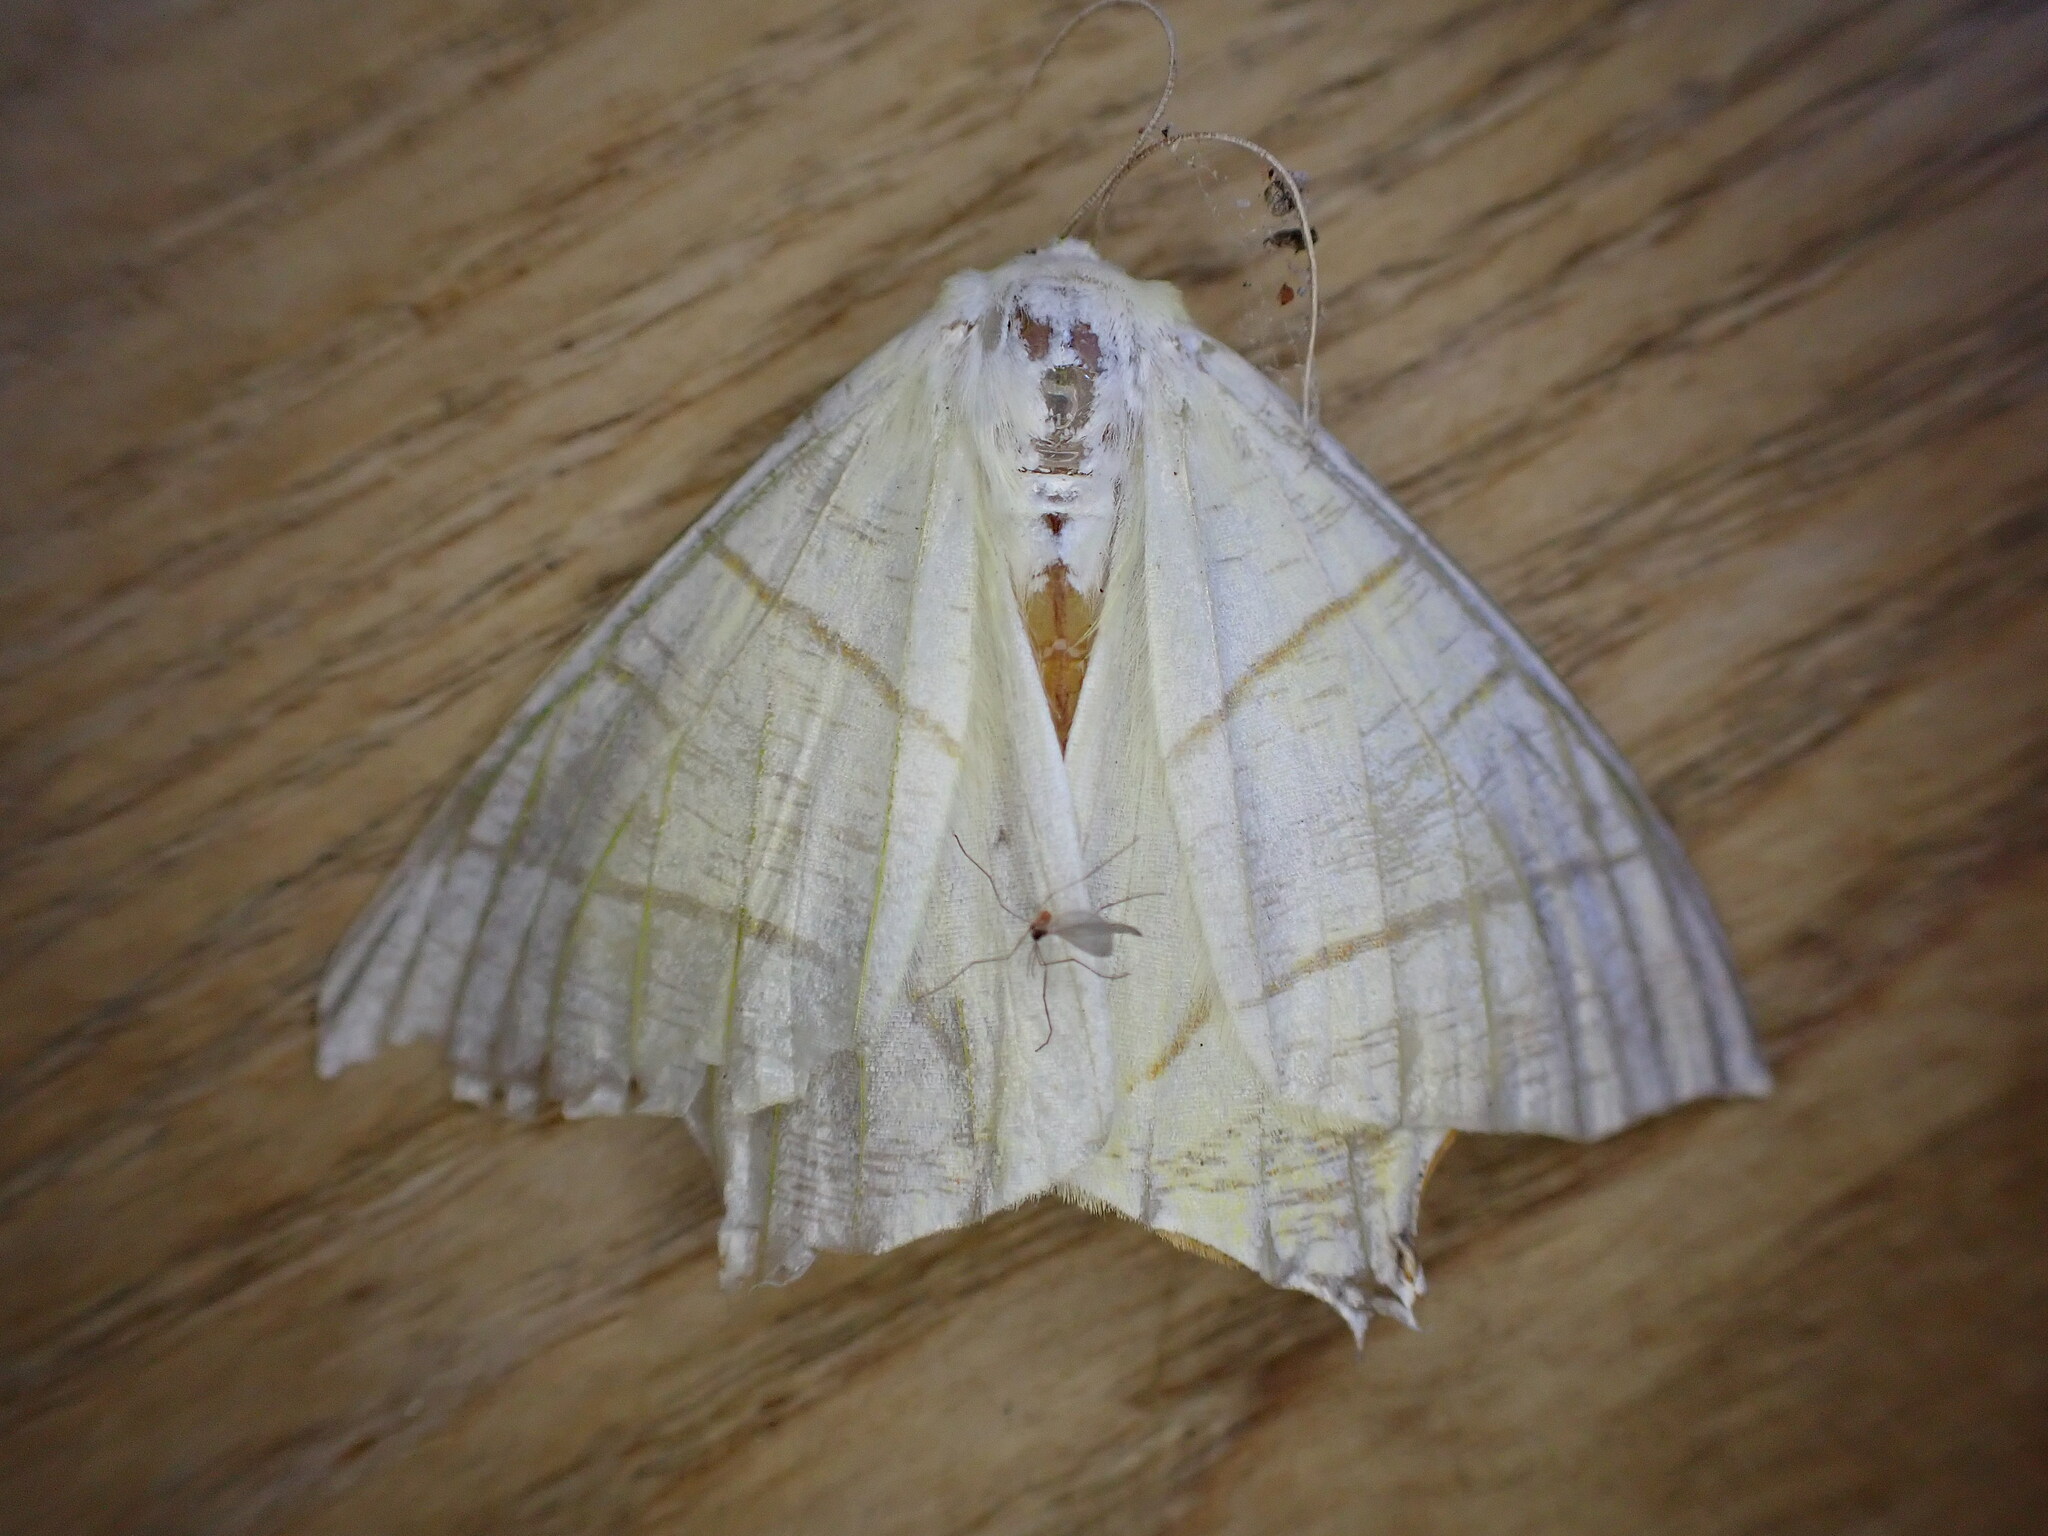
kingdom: Animalia
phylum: Arthropoda
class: Insecta
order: Lepidoptera
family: Geometridae
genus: Ourapteryx
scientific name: Ourapteryx sambucaria
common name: Swallow-tailed moth
